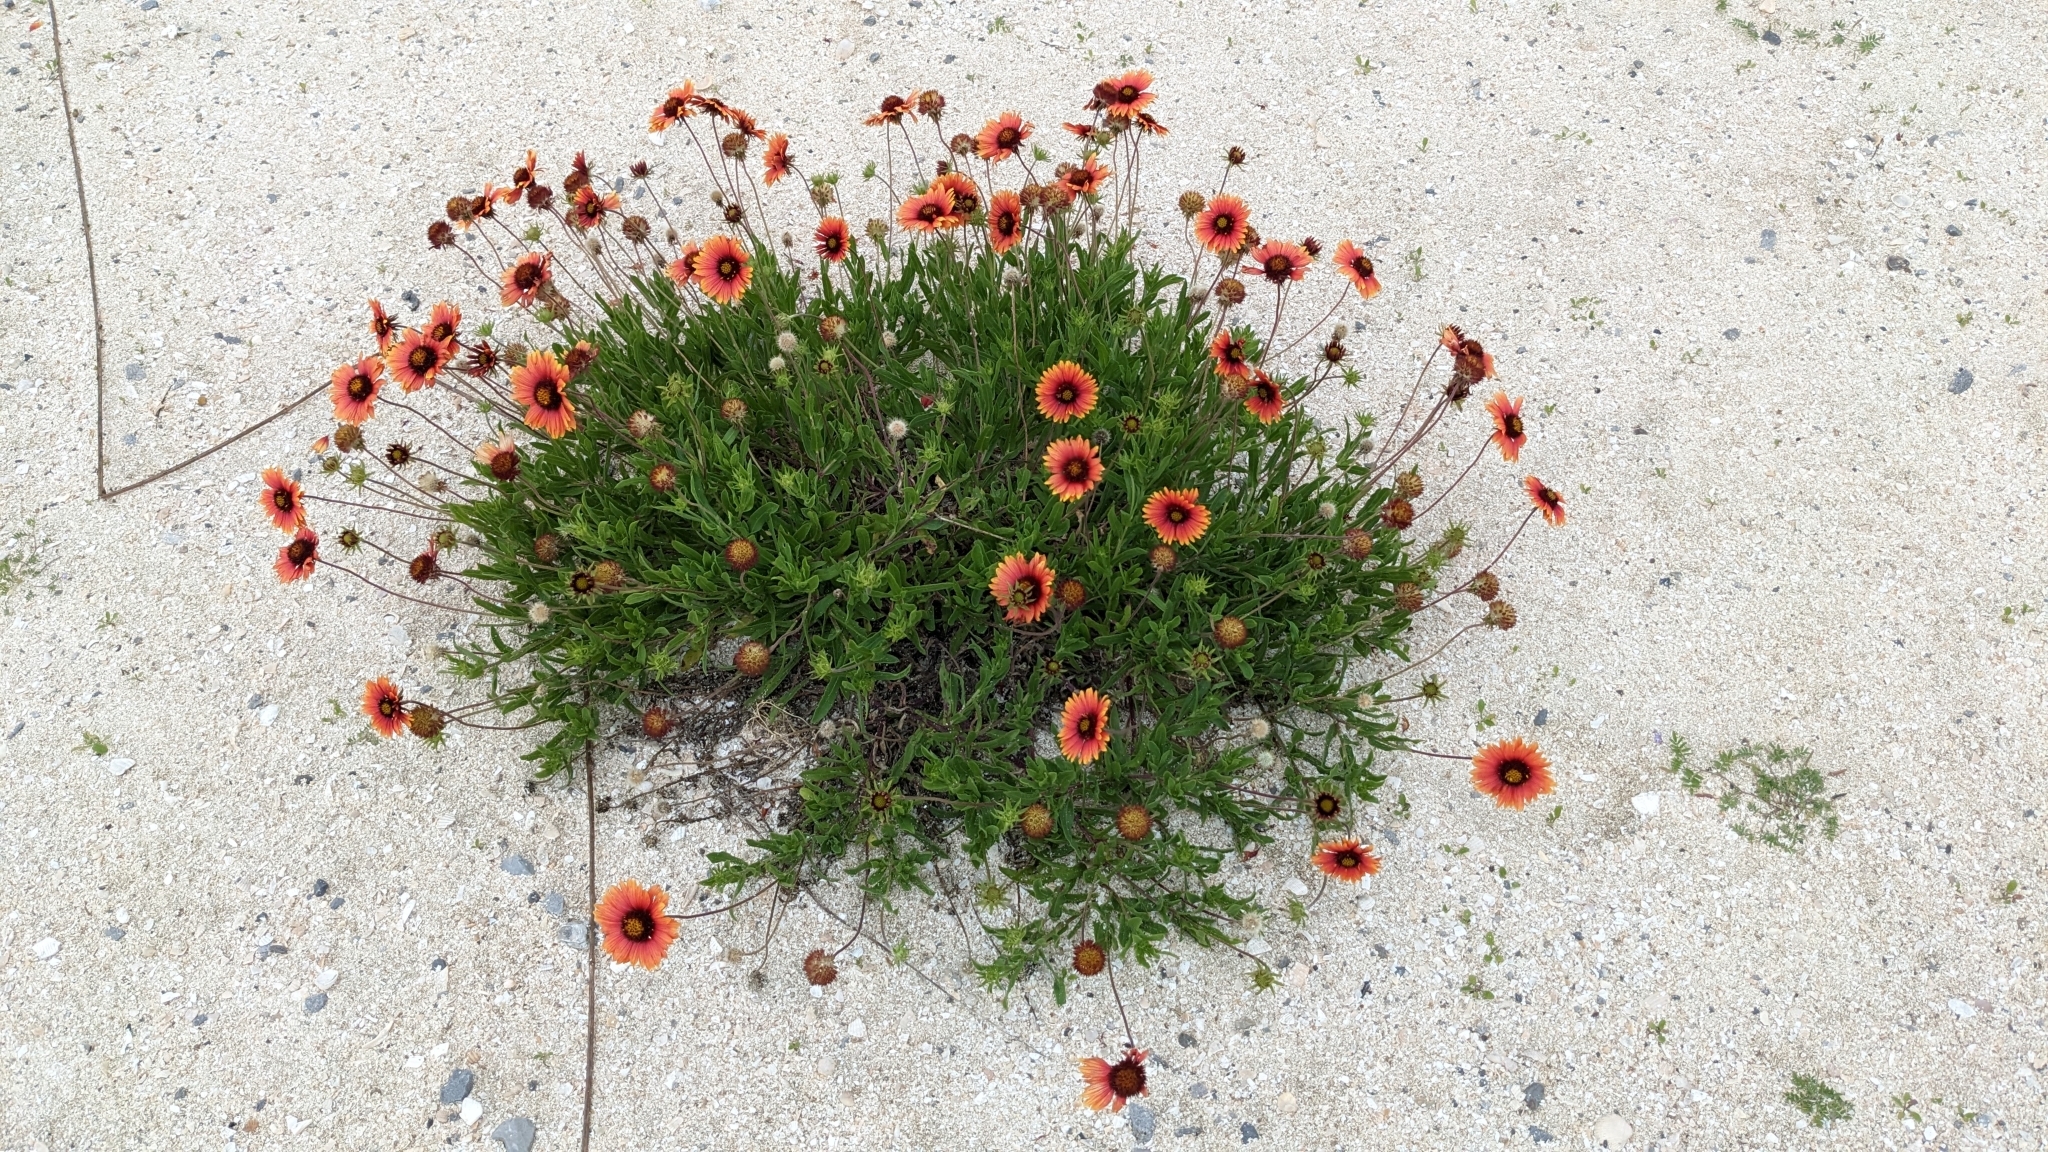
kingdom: Plantae
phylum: Tracheophyta
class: Magnoliopsida
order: Asterales
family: Asteraceae
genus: Gaillardia
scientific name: Gaillardia pulchella
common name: Firewheel
